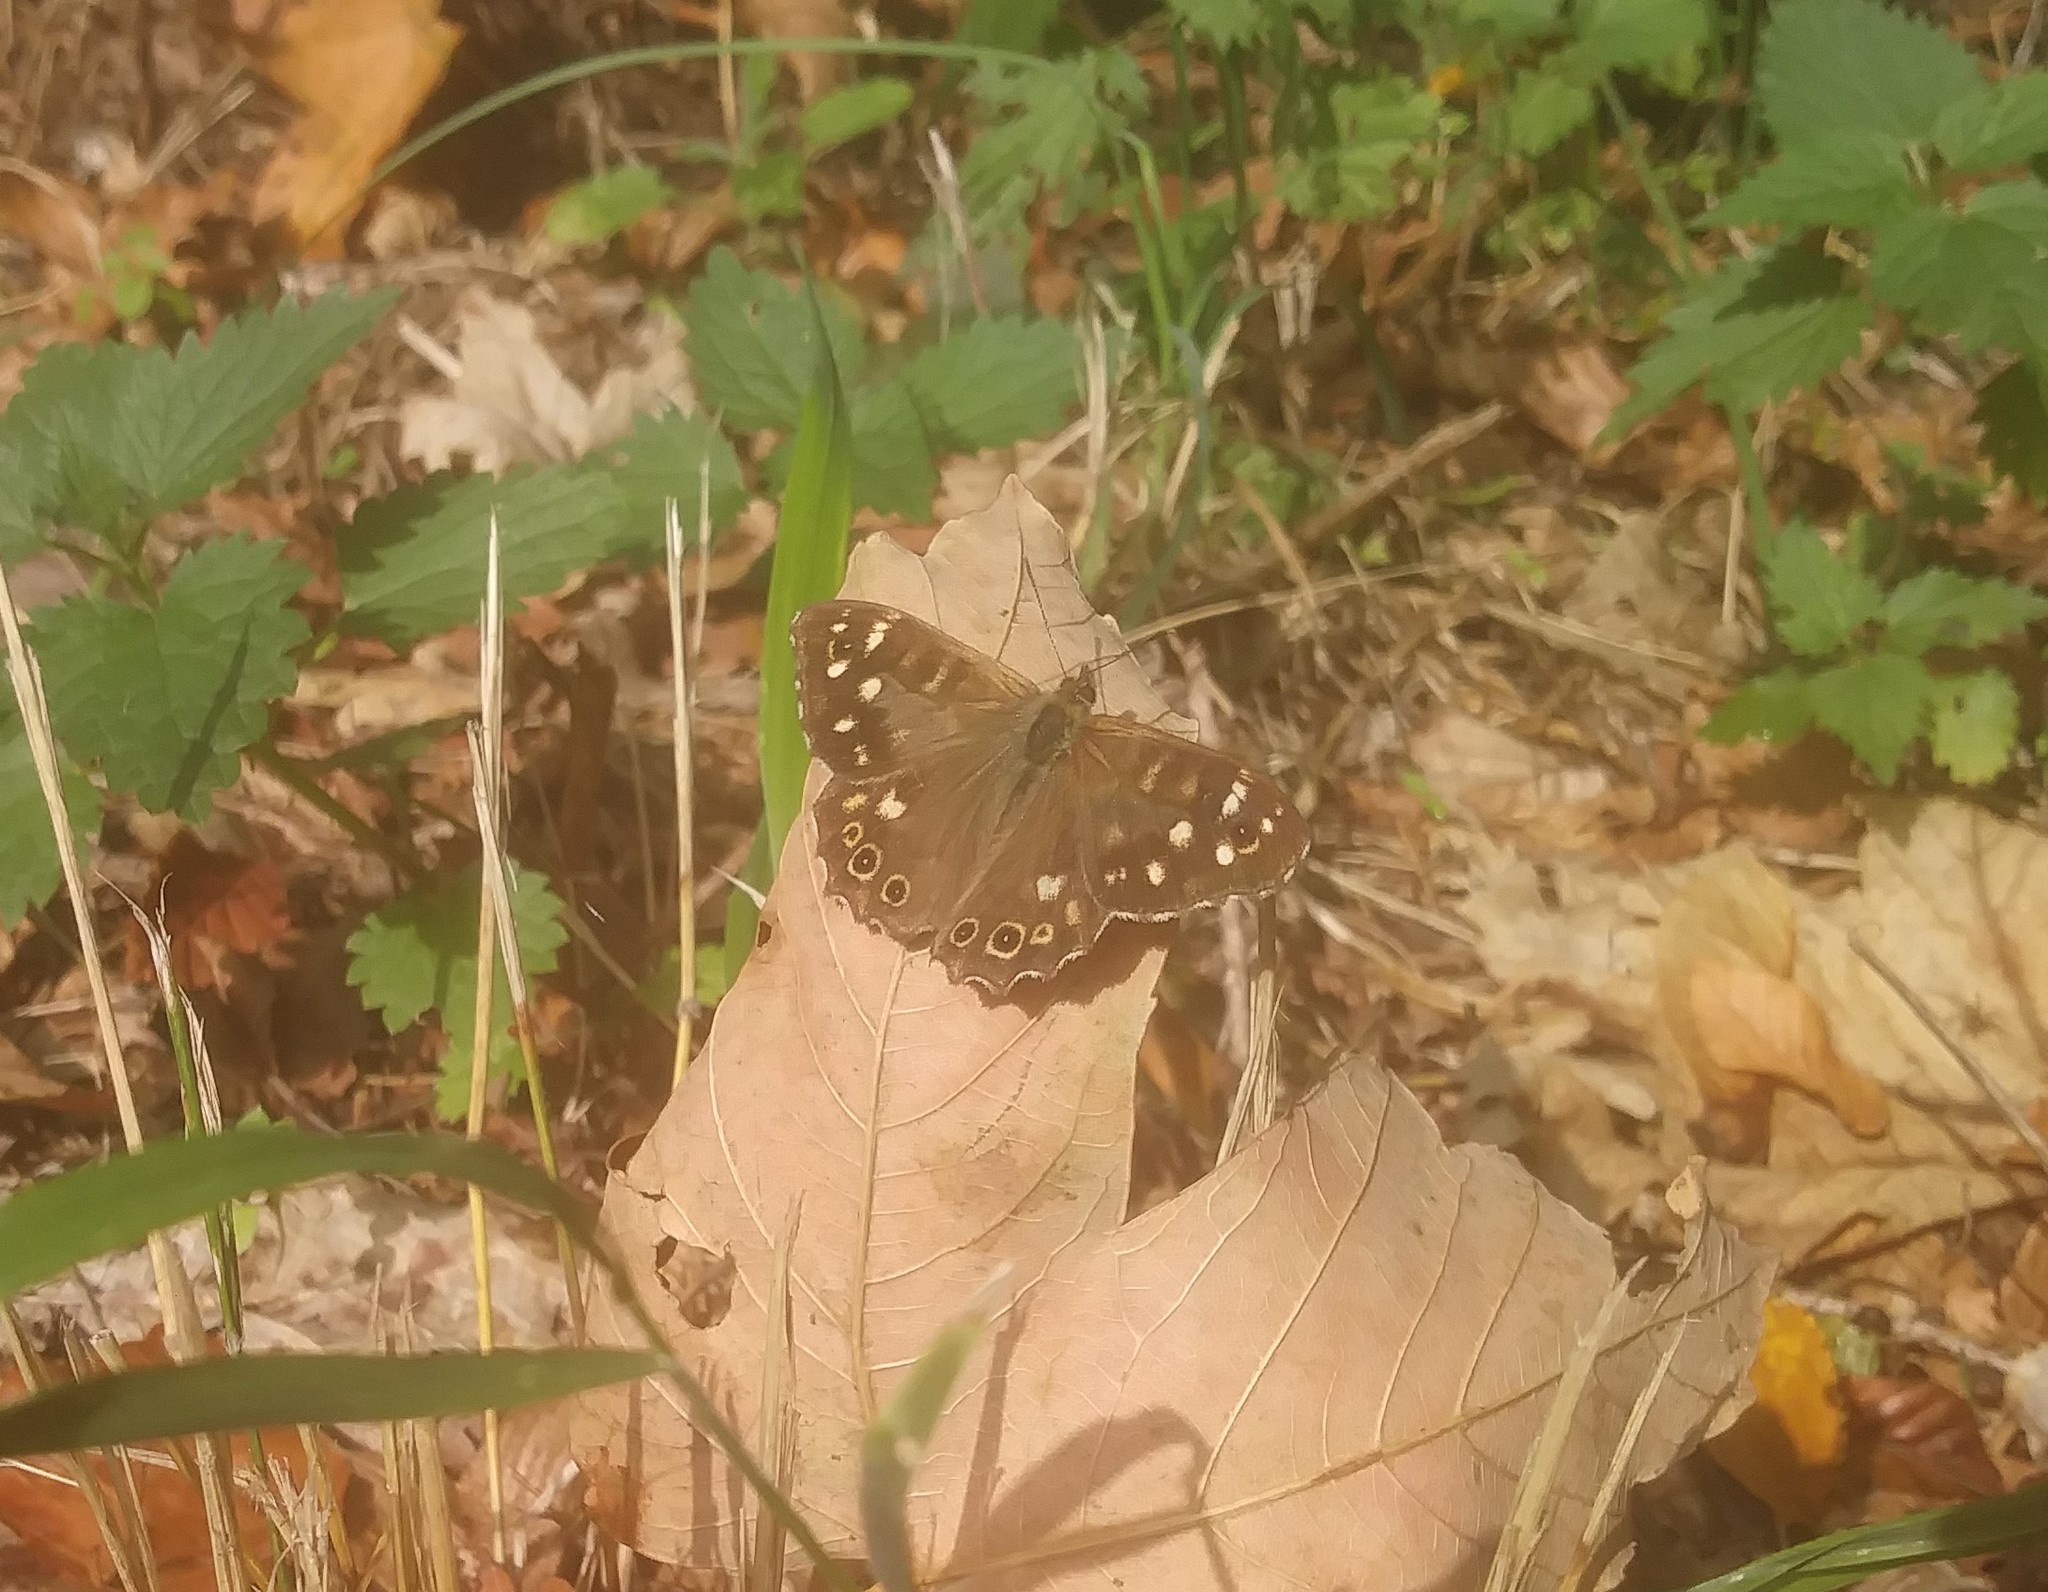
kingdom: Animalia
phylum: Arthropoda
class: Insecta
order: Lepidoptera
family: Nymphalidae
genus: Pararge
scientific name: Pararge aegeria
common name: Speckled wood
